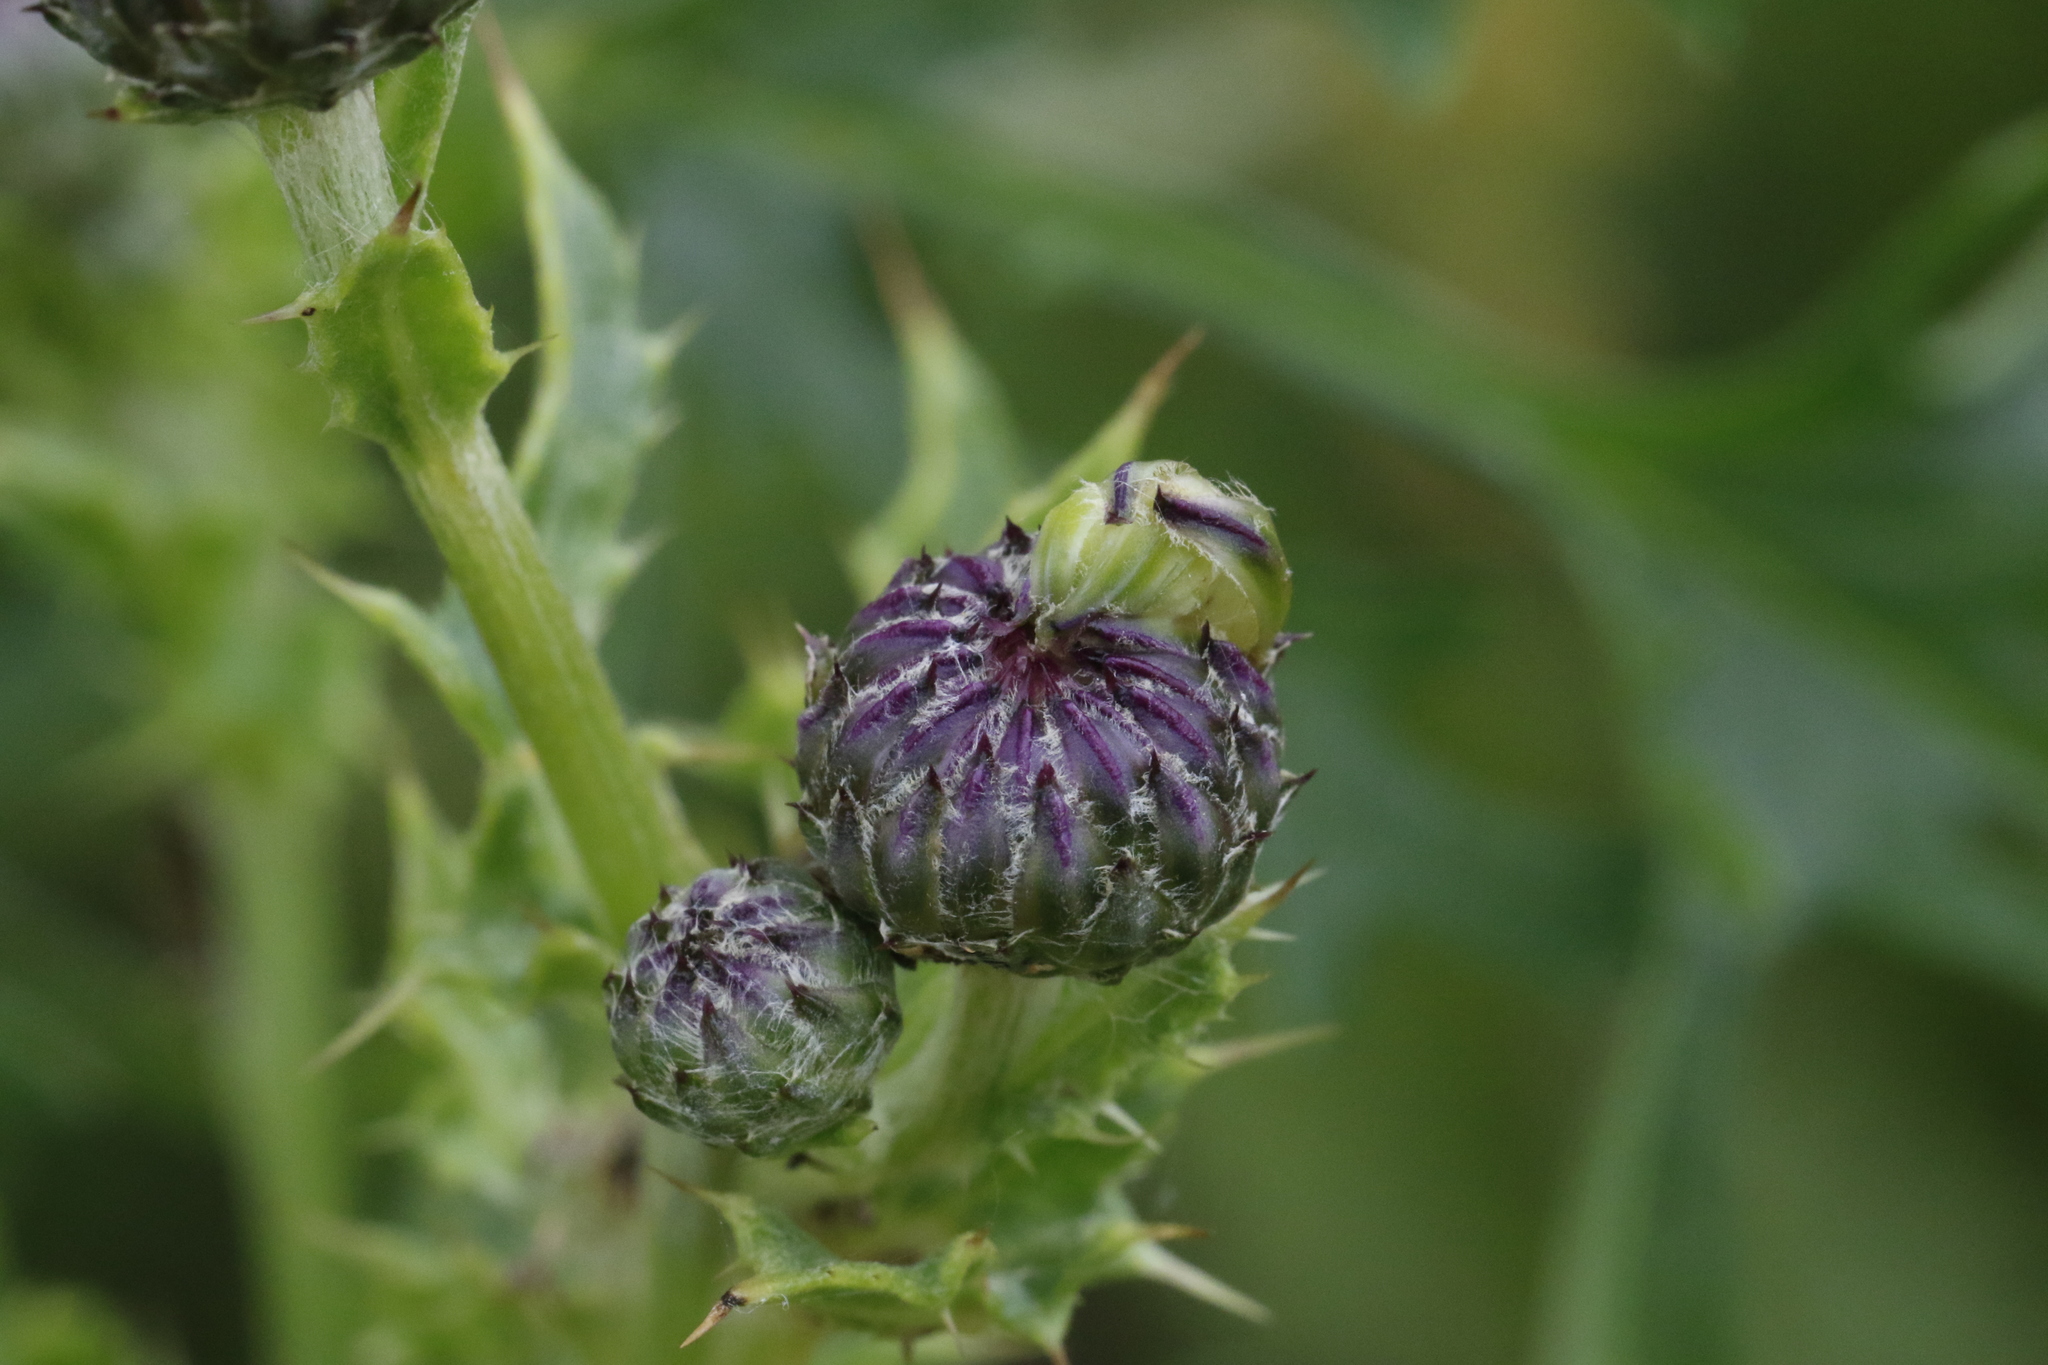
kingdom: Plantae
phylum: Tracheophyta
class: Magnoliopsida
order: Asterales
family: Asteraceae
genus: Cirsium
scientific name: Cirsium arvense
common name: Creeping thistle
